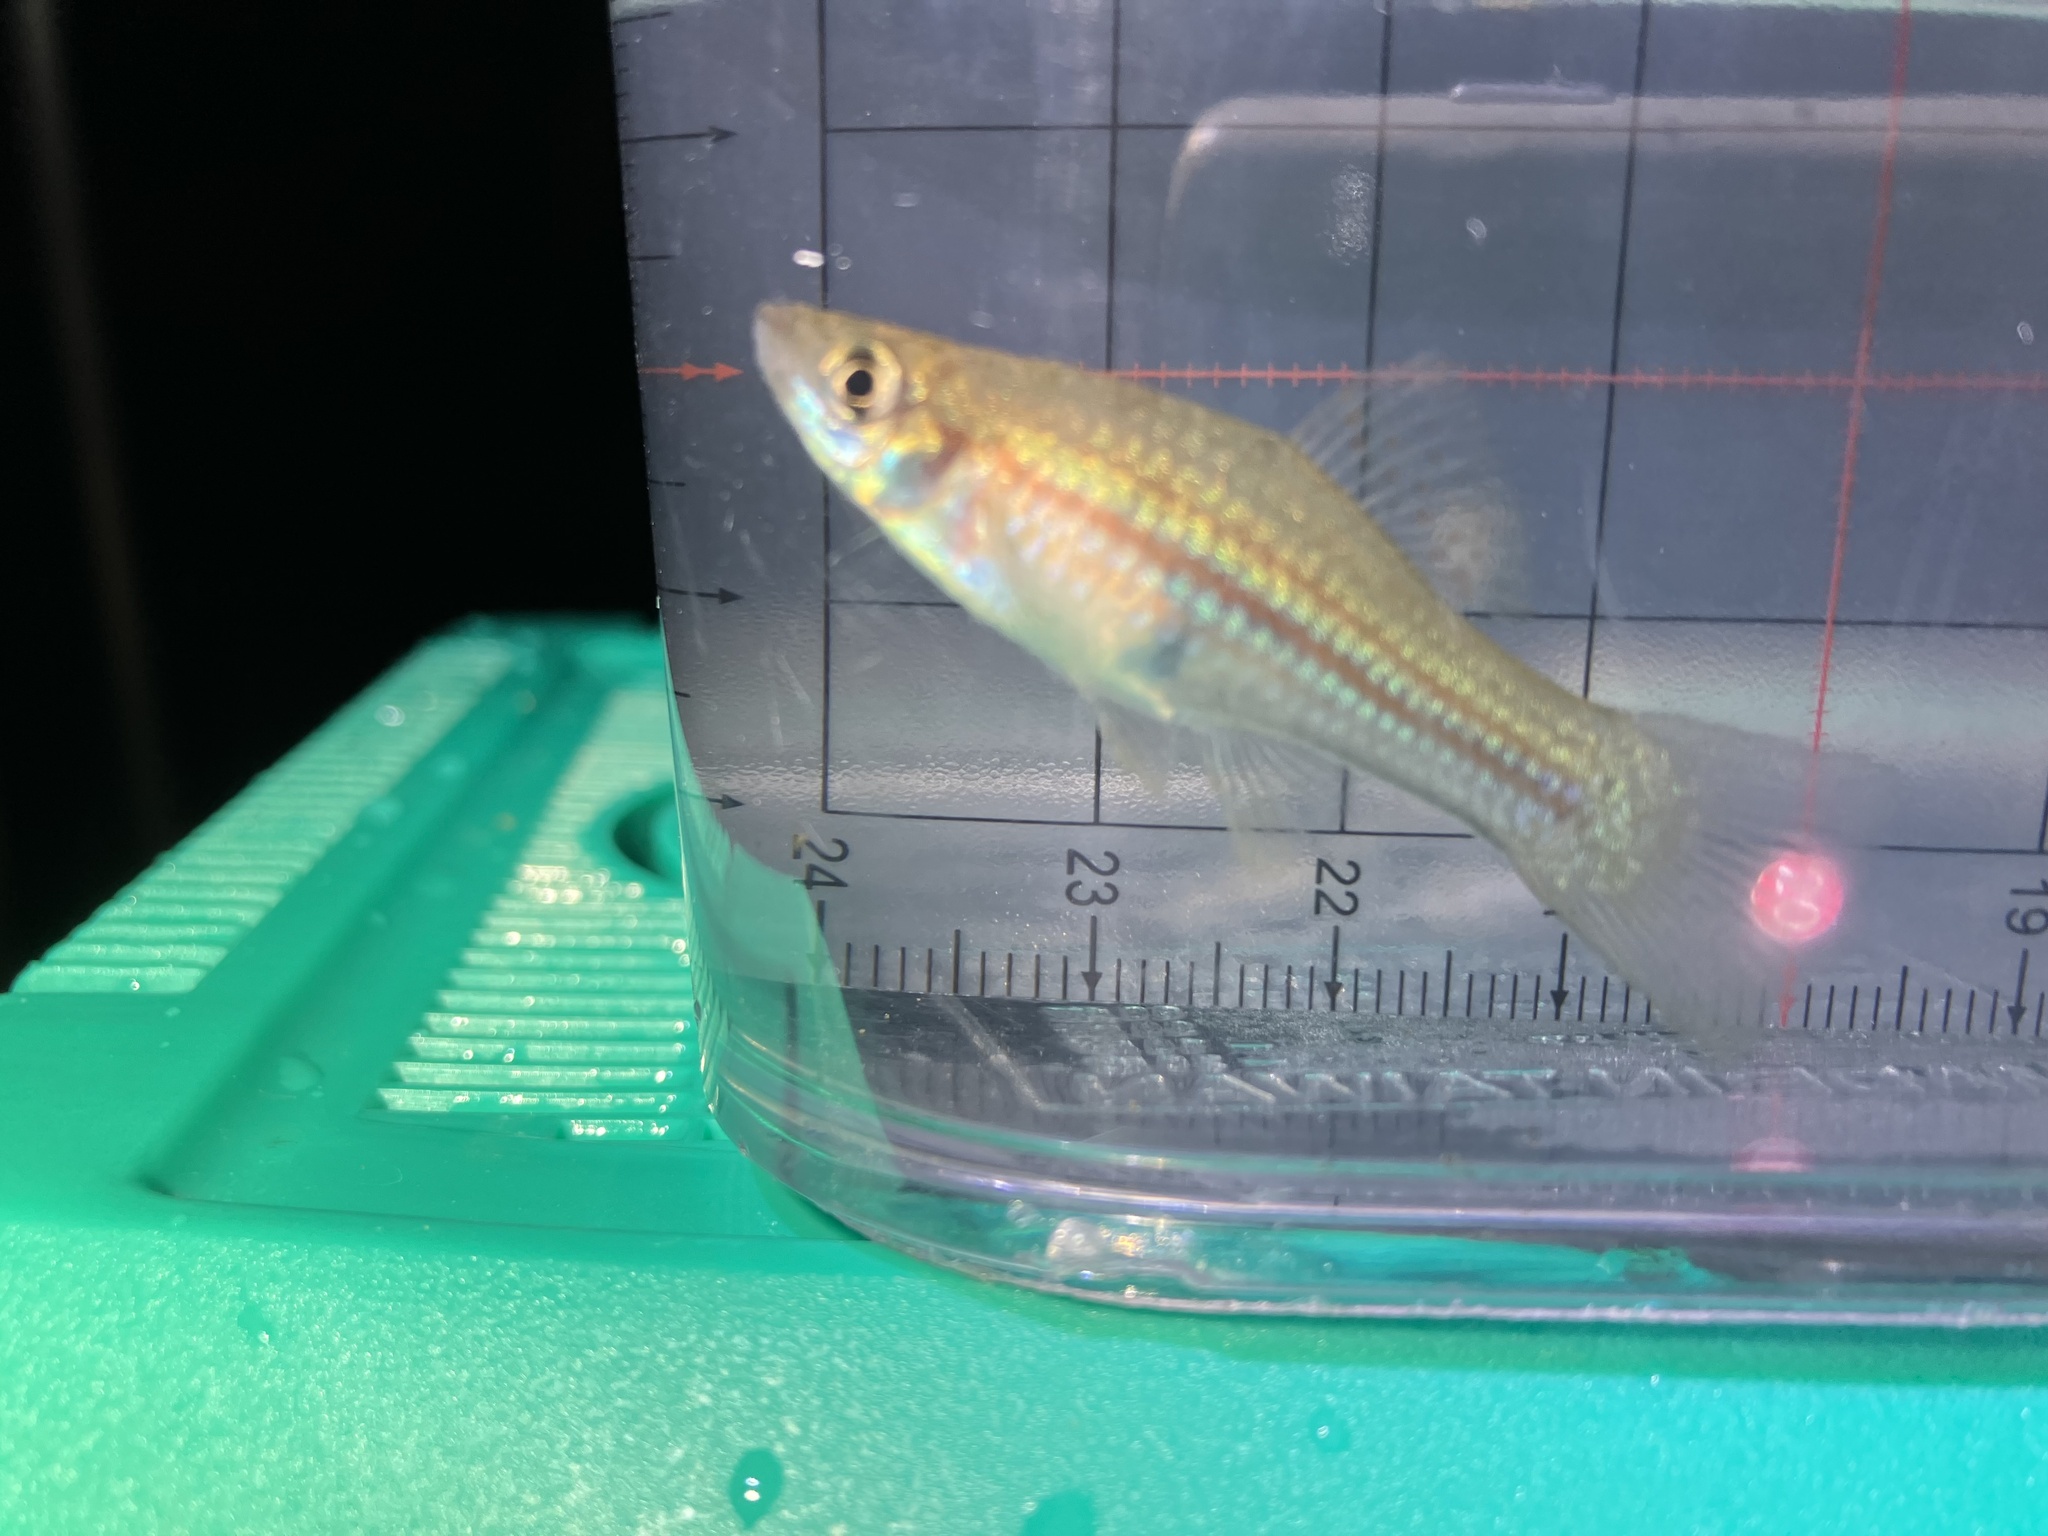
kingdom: Animalia
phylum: Chordata
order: Cyprinodontiformes
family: Poeciliidae
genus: Xiphophorus
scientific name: Xiphophorus hellerii
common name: Green swordtail
